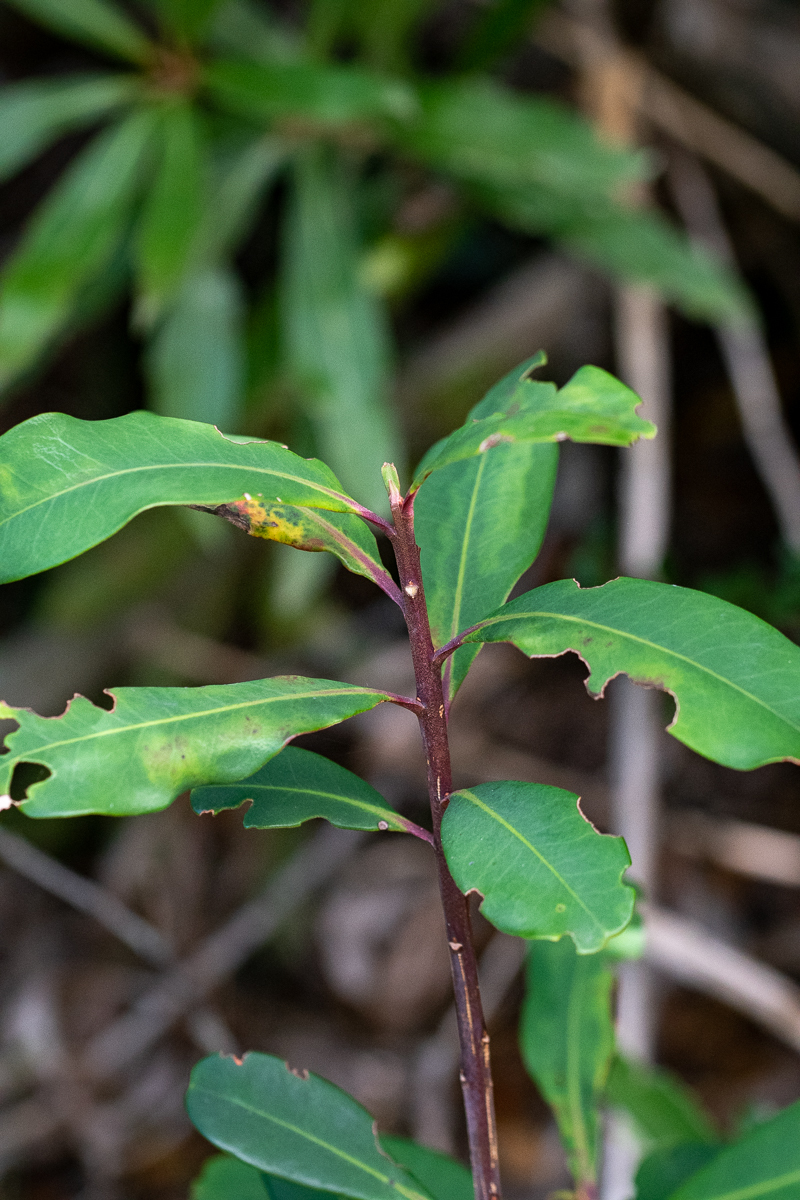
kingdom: Plantae
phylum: Tracheophyta
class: Magnoliopsida
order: Ericales
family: Primulaceae
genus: Myrsine
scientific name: Myrsine melanophloeos
